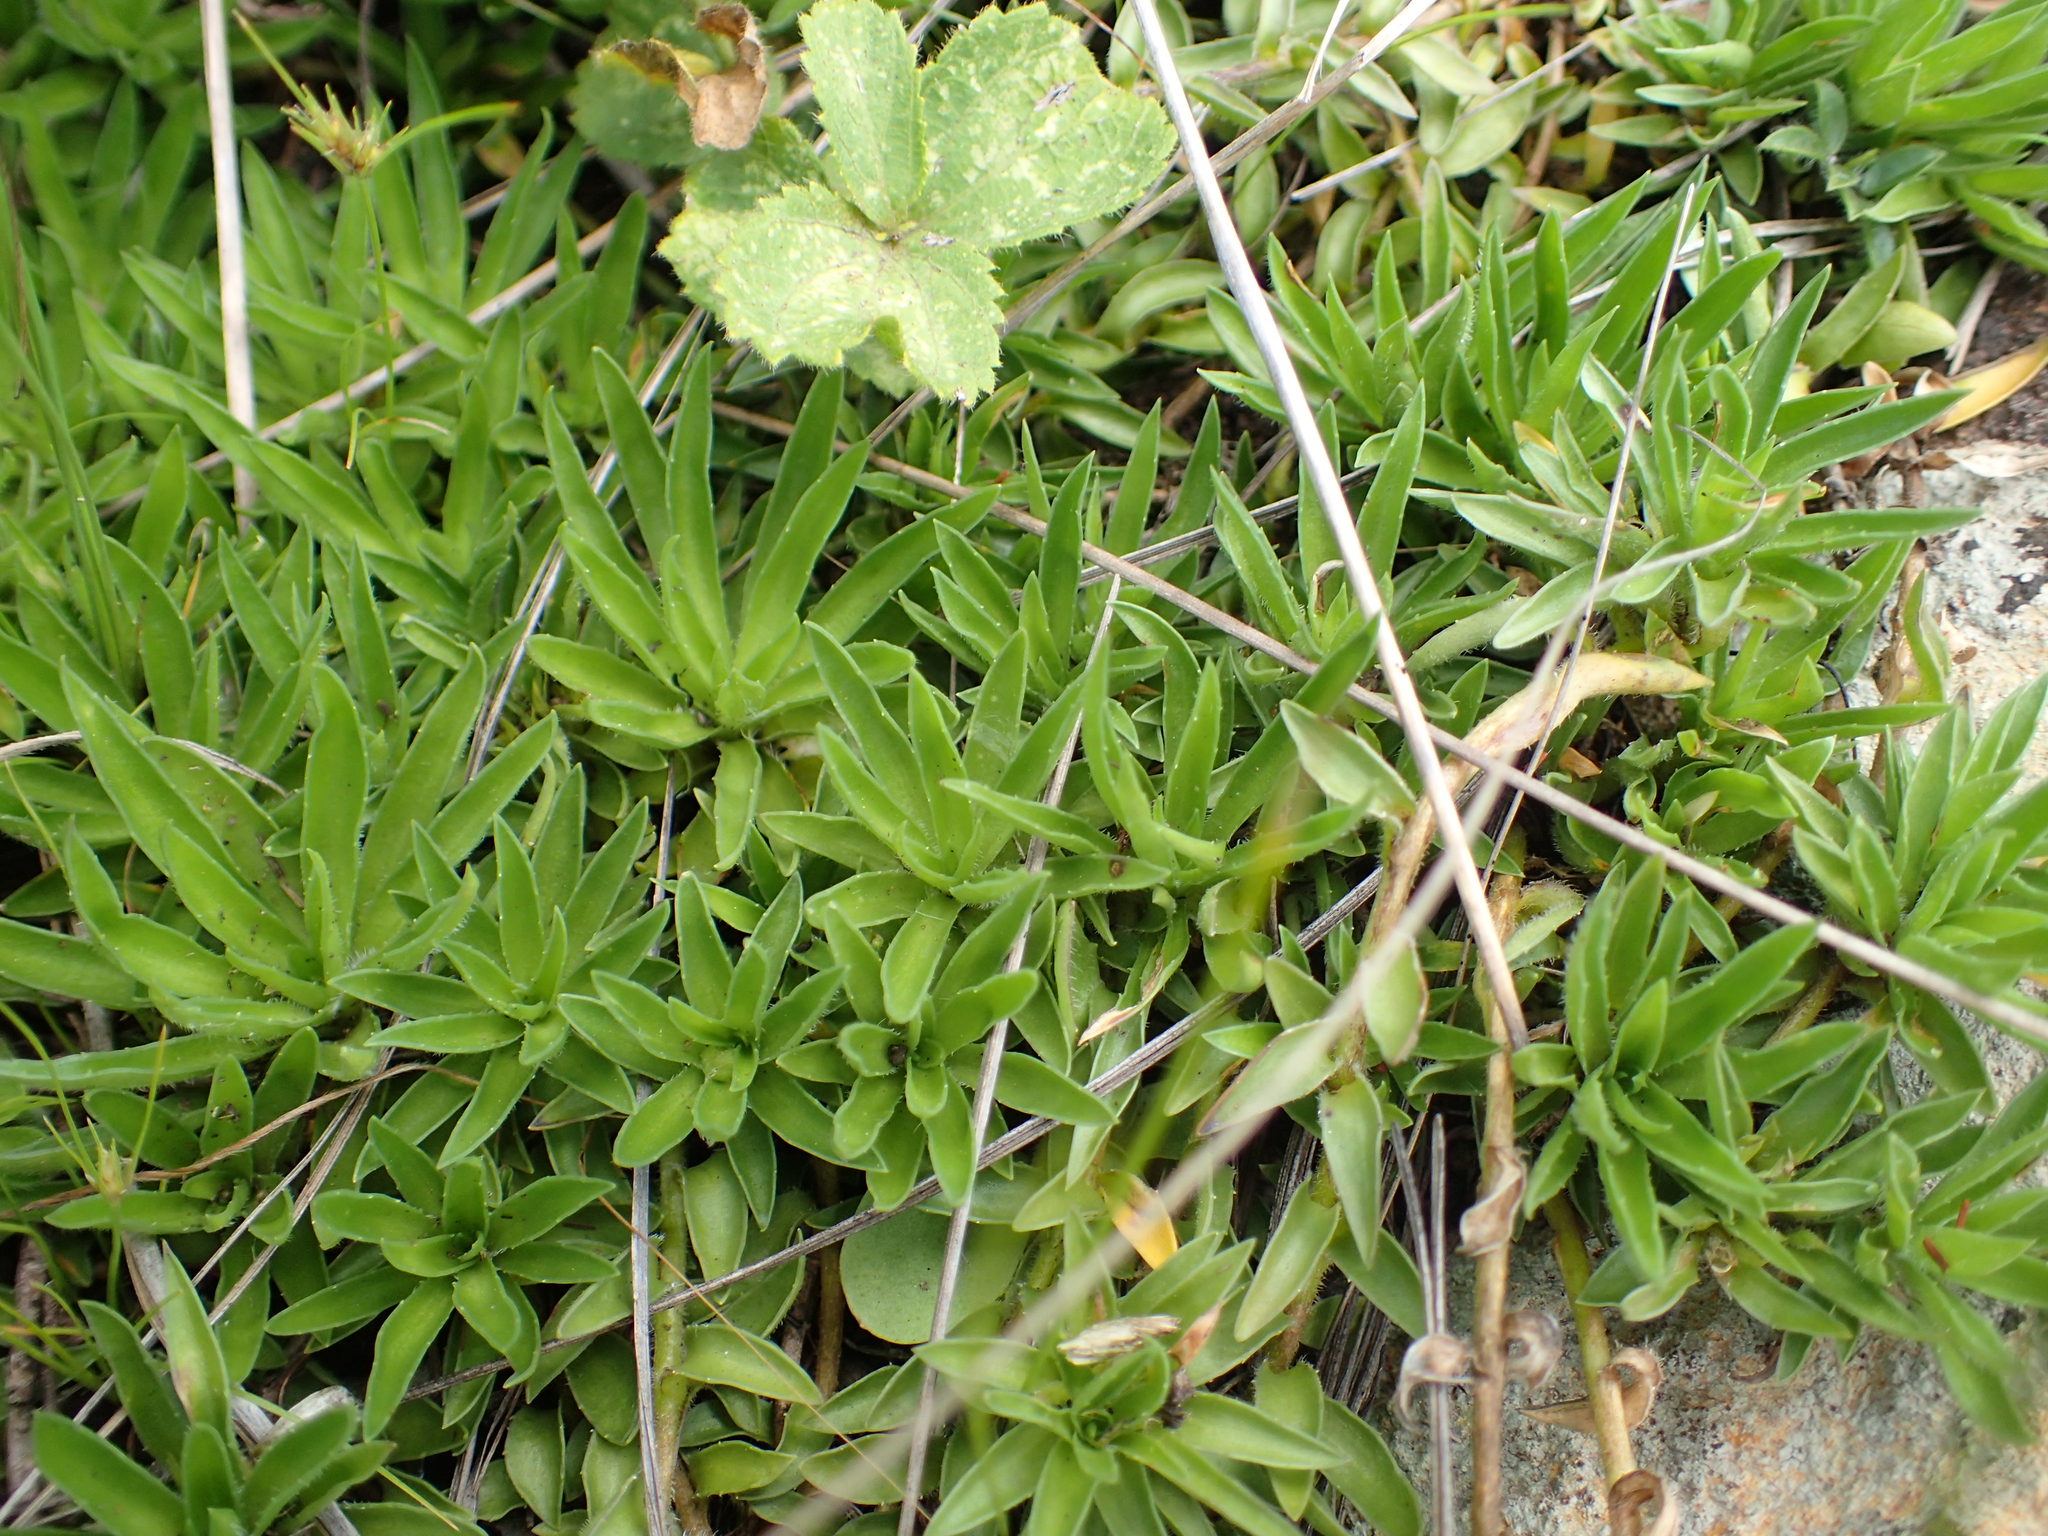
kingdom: Plantae
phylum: Tracheophyta
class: Magnoliopsida
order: Asterales
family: Campanulaceae
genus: Craterocapsa
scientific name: Craterocapsa tarsodes
